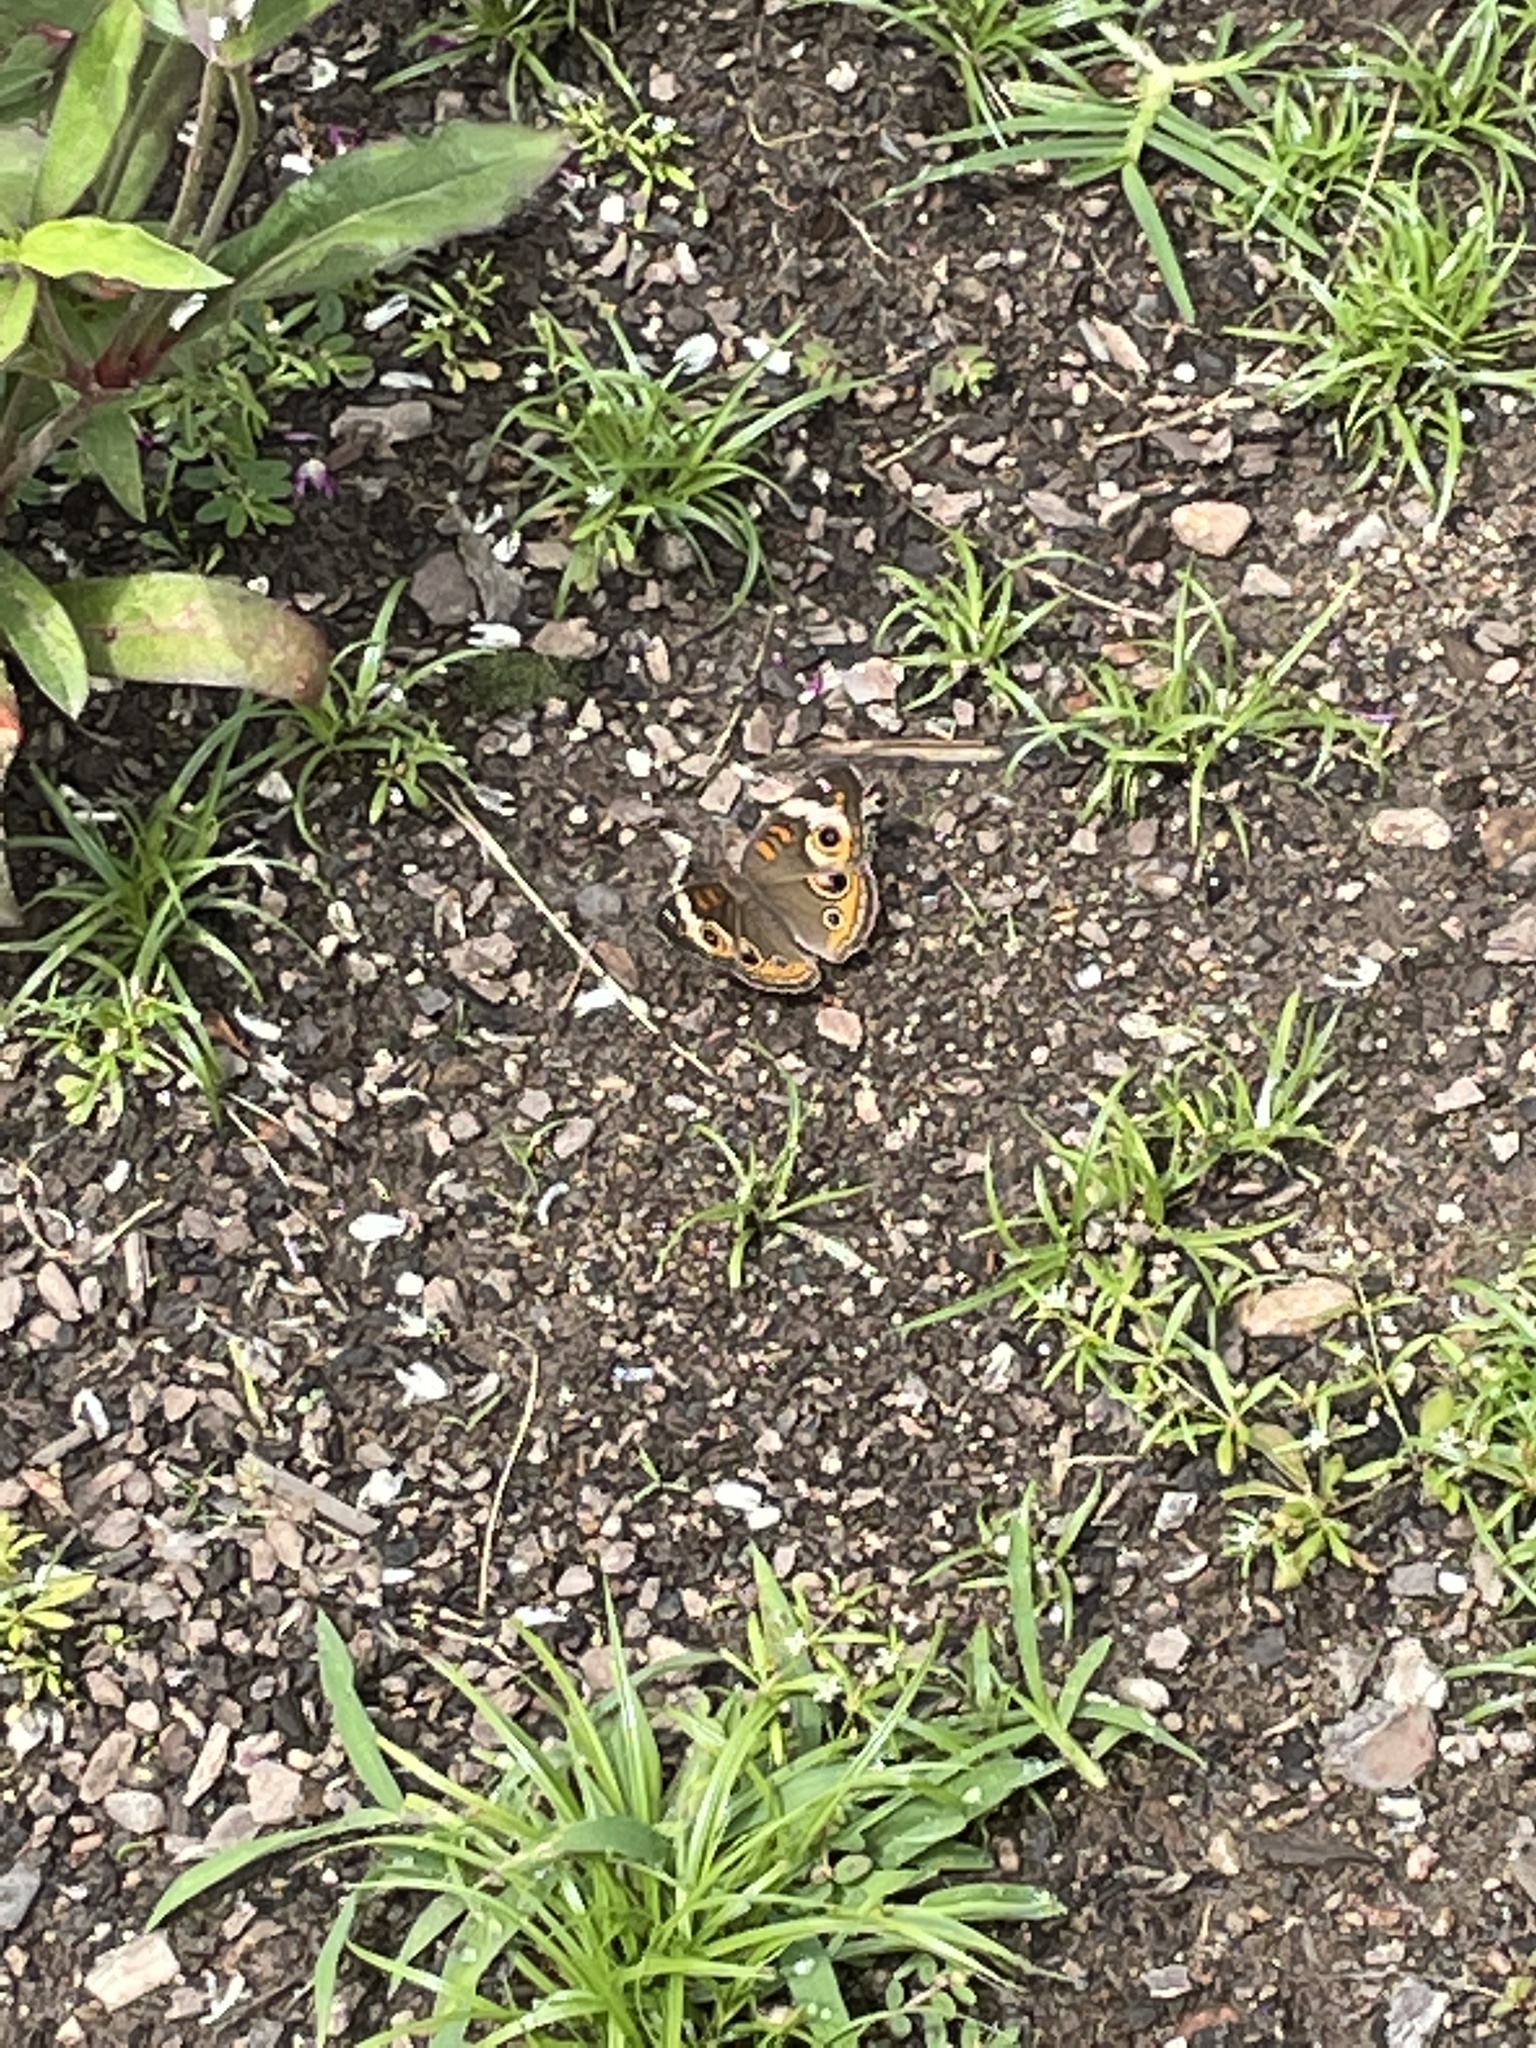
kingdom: Animalia
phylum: Arthropoda
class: Insecta
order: Lepidoptera
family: Nymphalidae
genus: Junonia
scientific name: Junonia coenia
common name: Common buckeye
